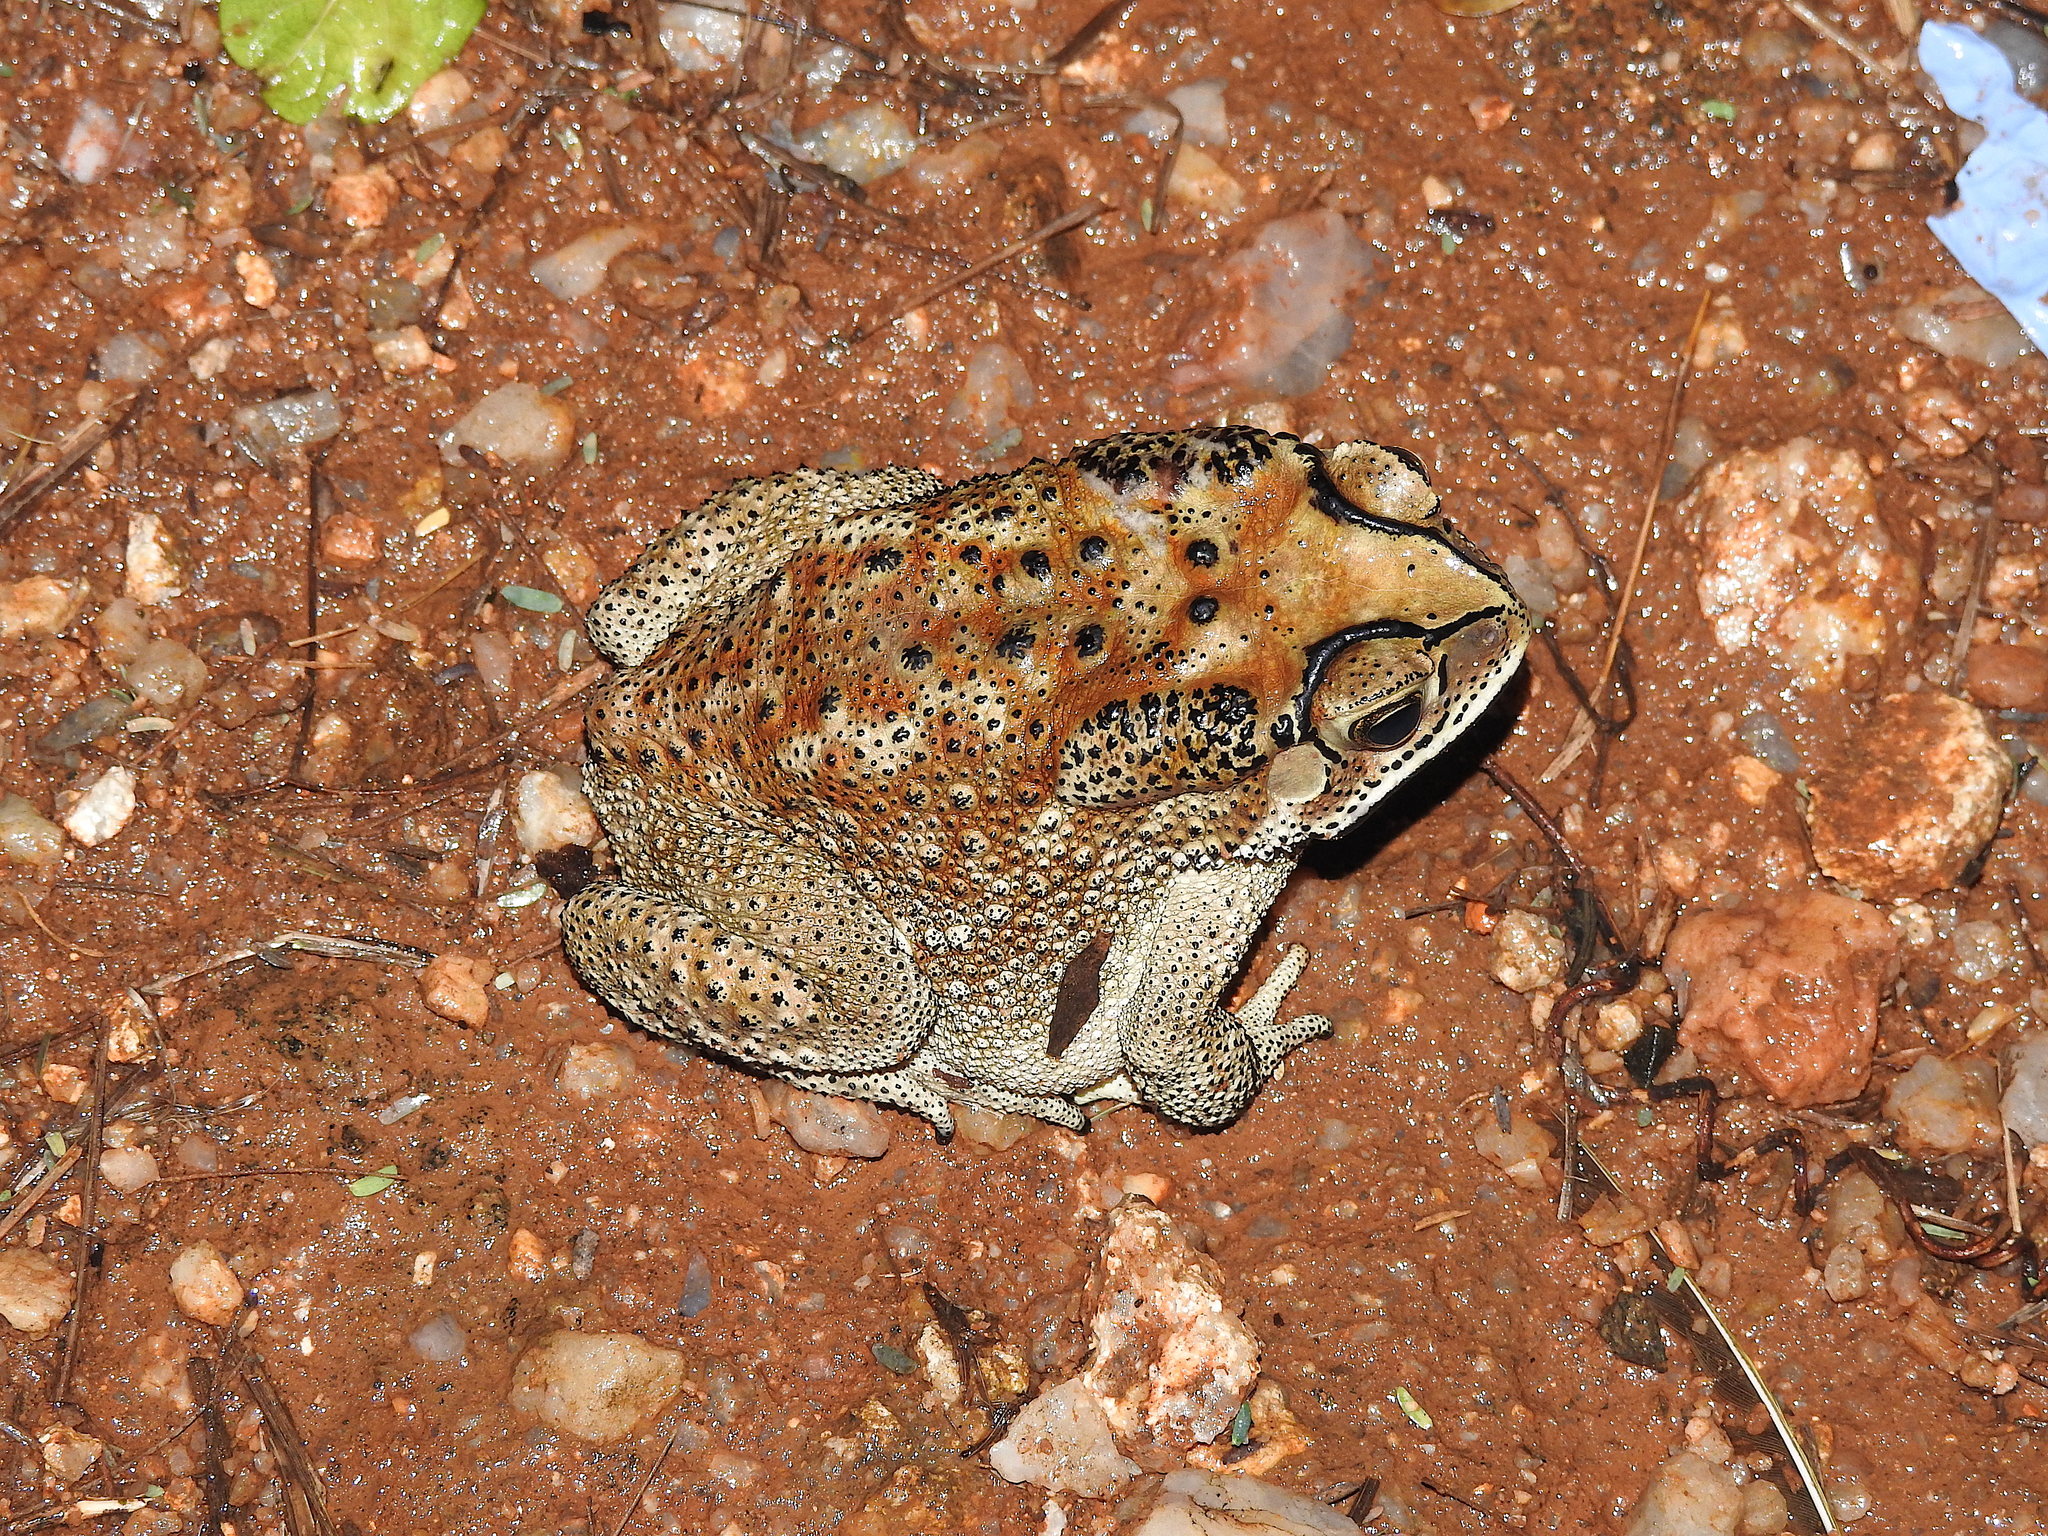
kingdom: Animalia
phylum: Chordata
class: Amphibia
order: Anura
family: Bufonidae
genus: Duttaphrynus
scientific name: Duttaphrynus melanostictus
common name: Common sunda toad
